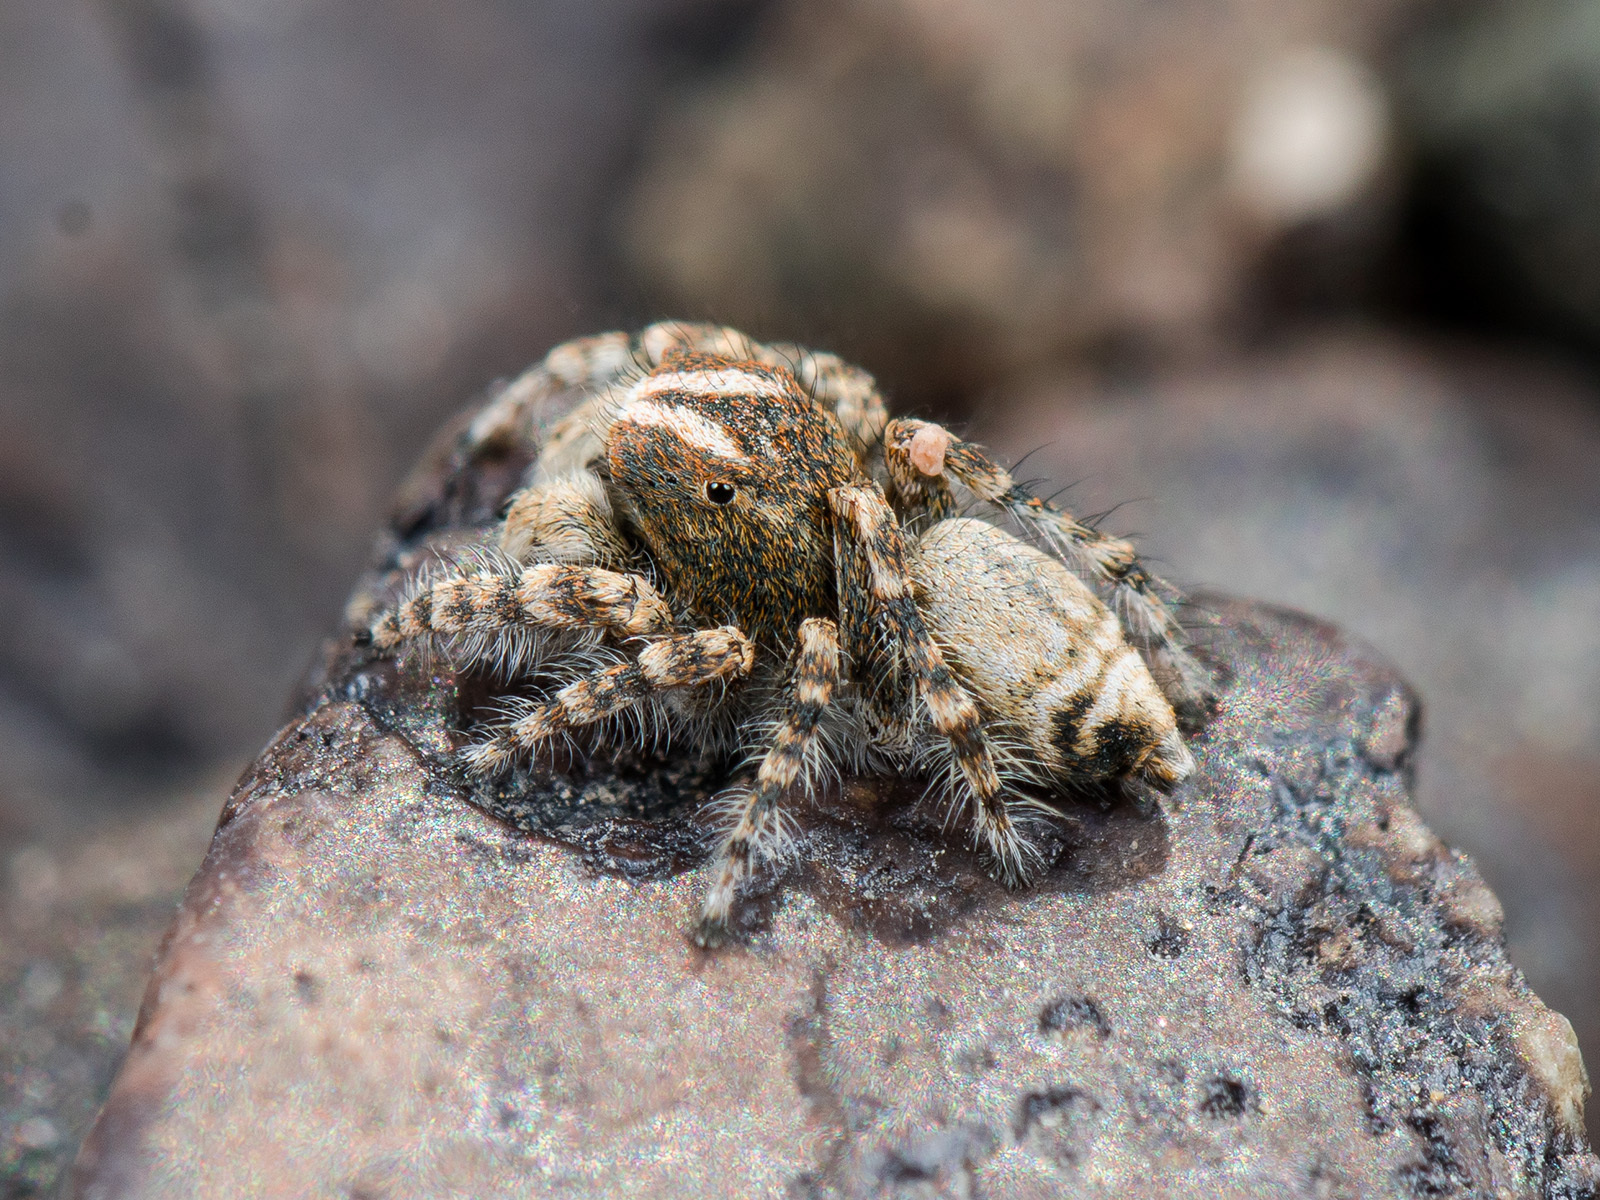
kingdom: Animalia
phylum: Arthropoda
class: Arachnida
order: Araneae
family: Salticidae
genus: Yllenus
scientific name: Yllenus zyuzini
